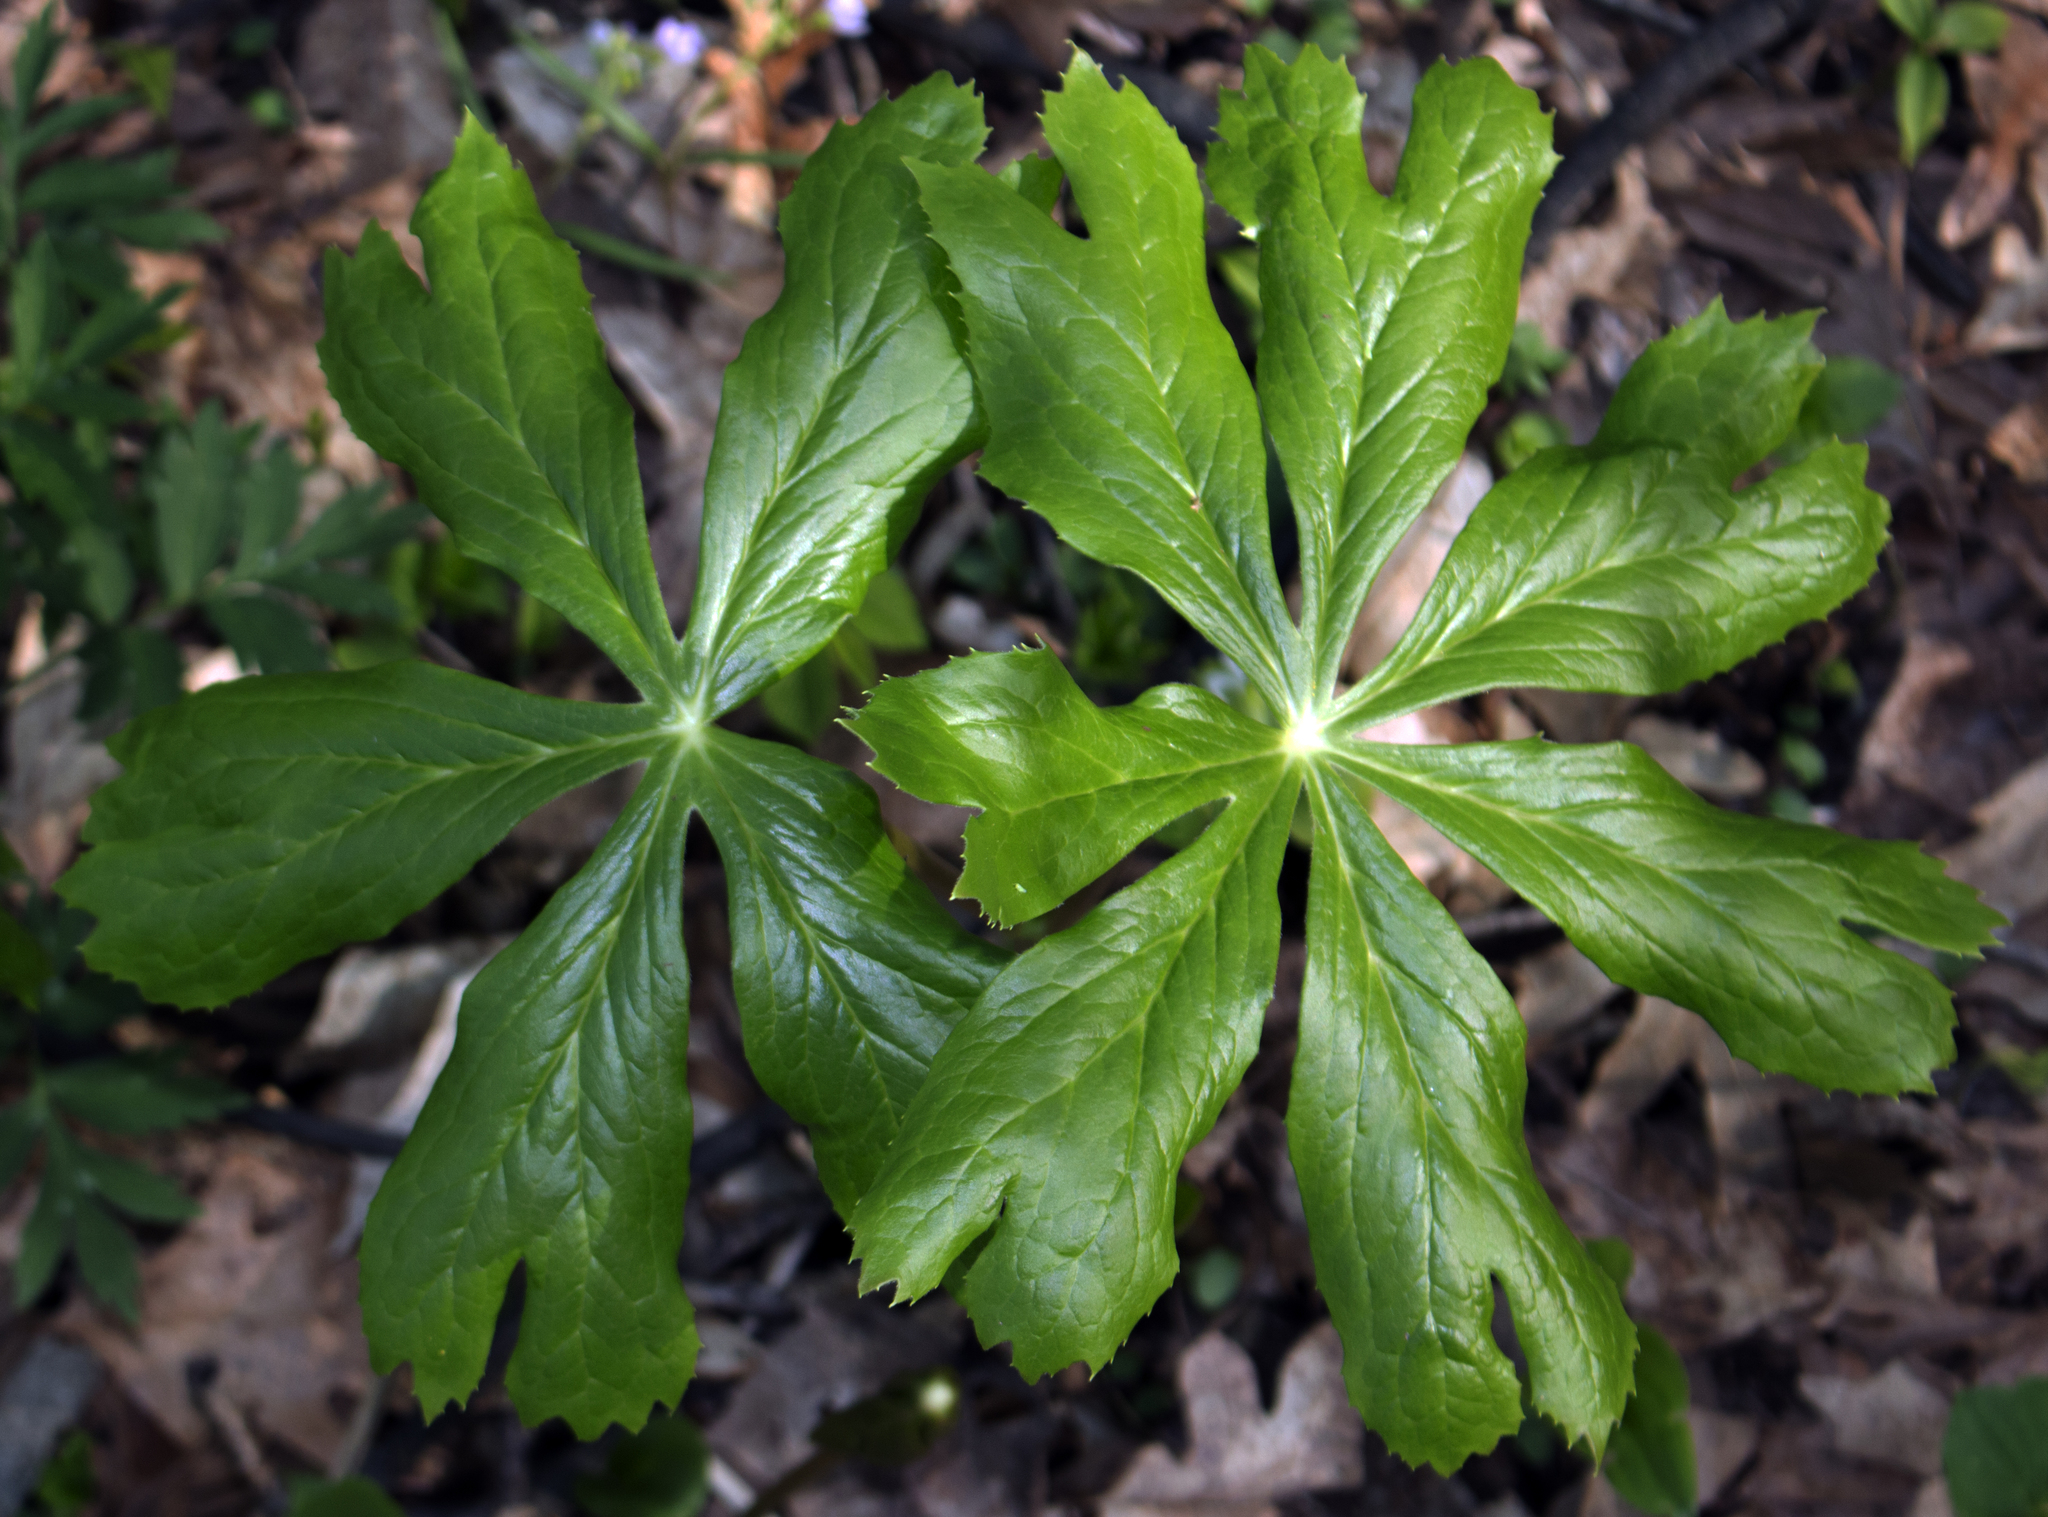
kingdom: Plantae
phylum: Tracheophyta
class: Magnoliopsida
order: Ranunculales
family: Berberidaceae
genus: Podophyllum
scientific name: Podophyllum peltatum
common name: Wild mandrake
